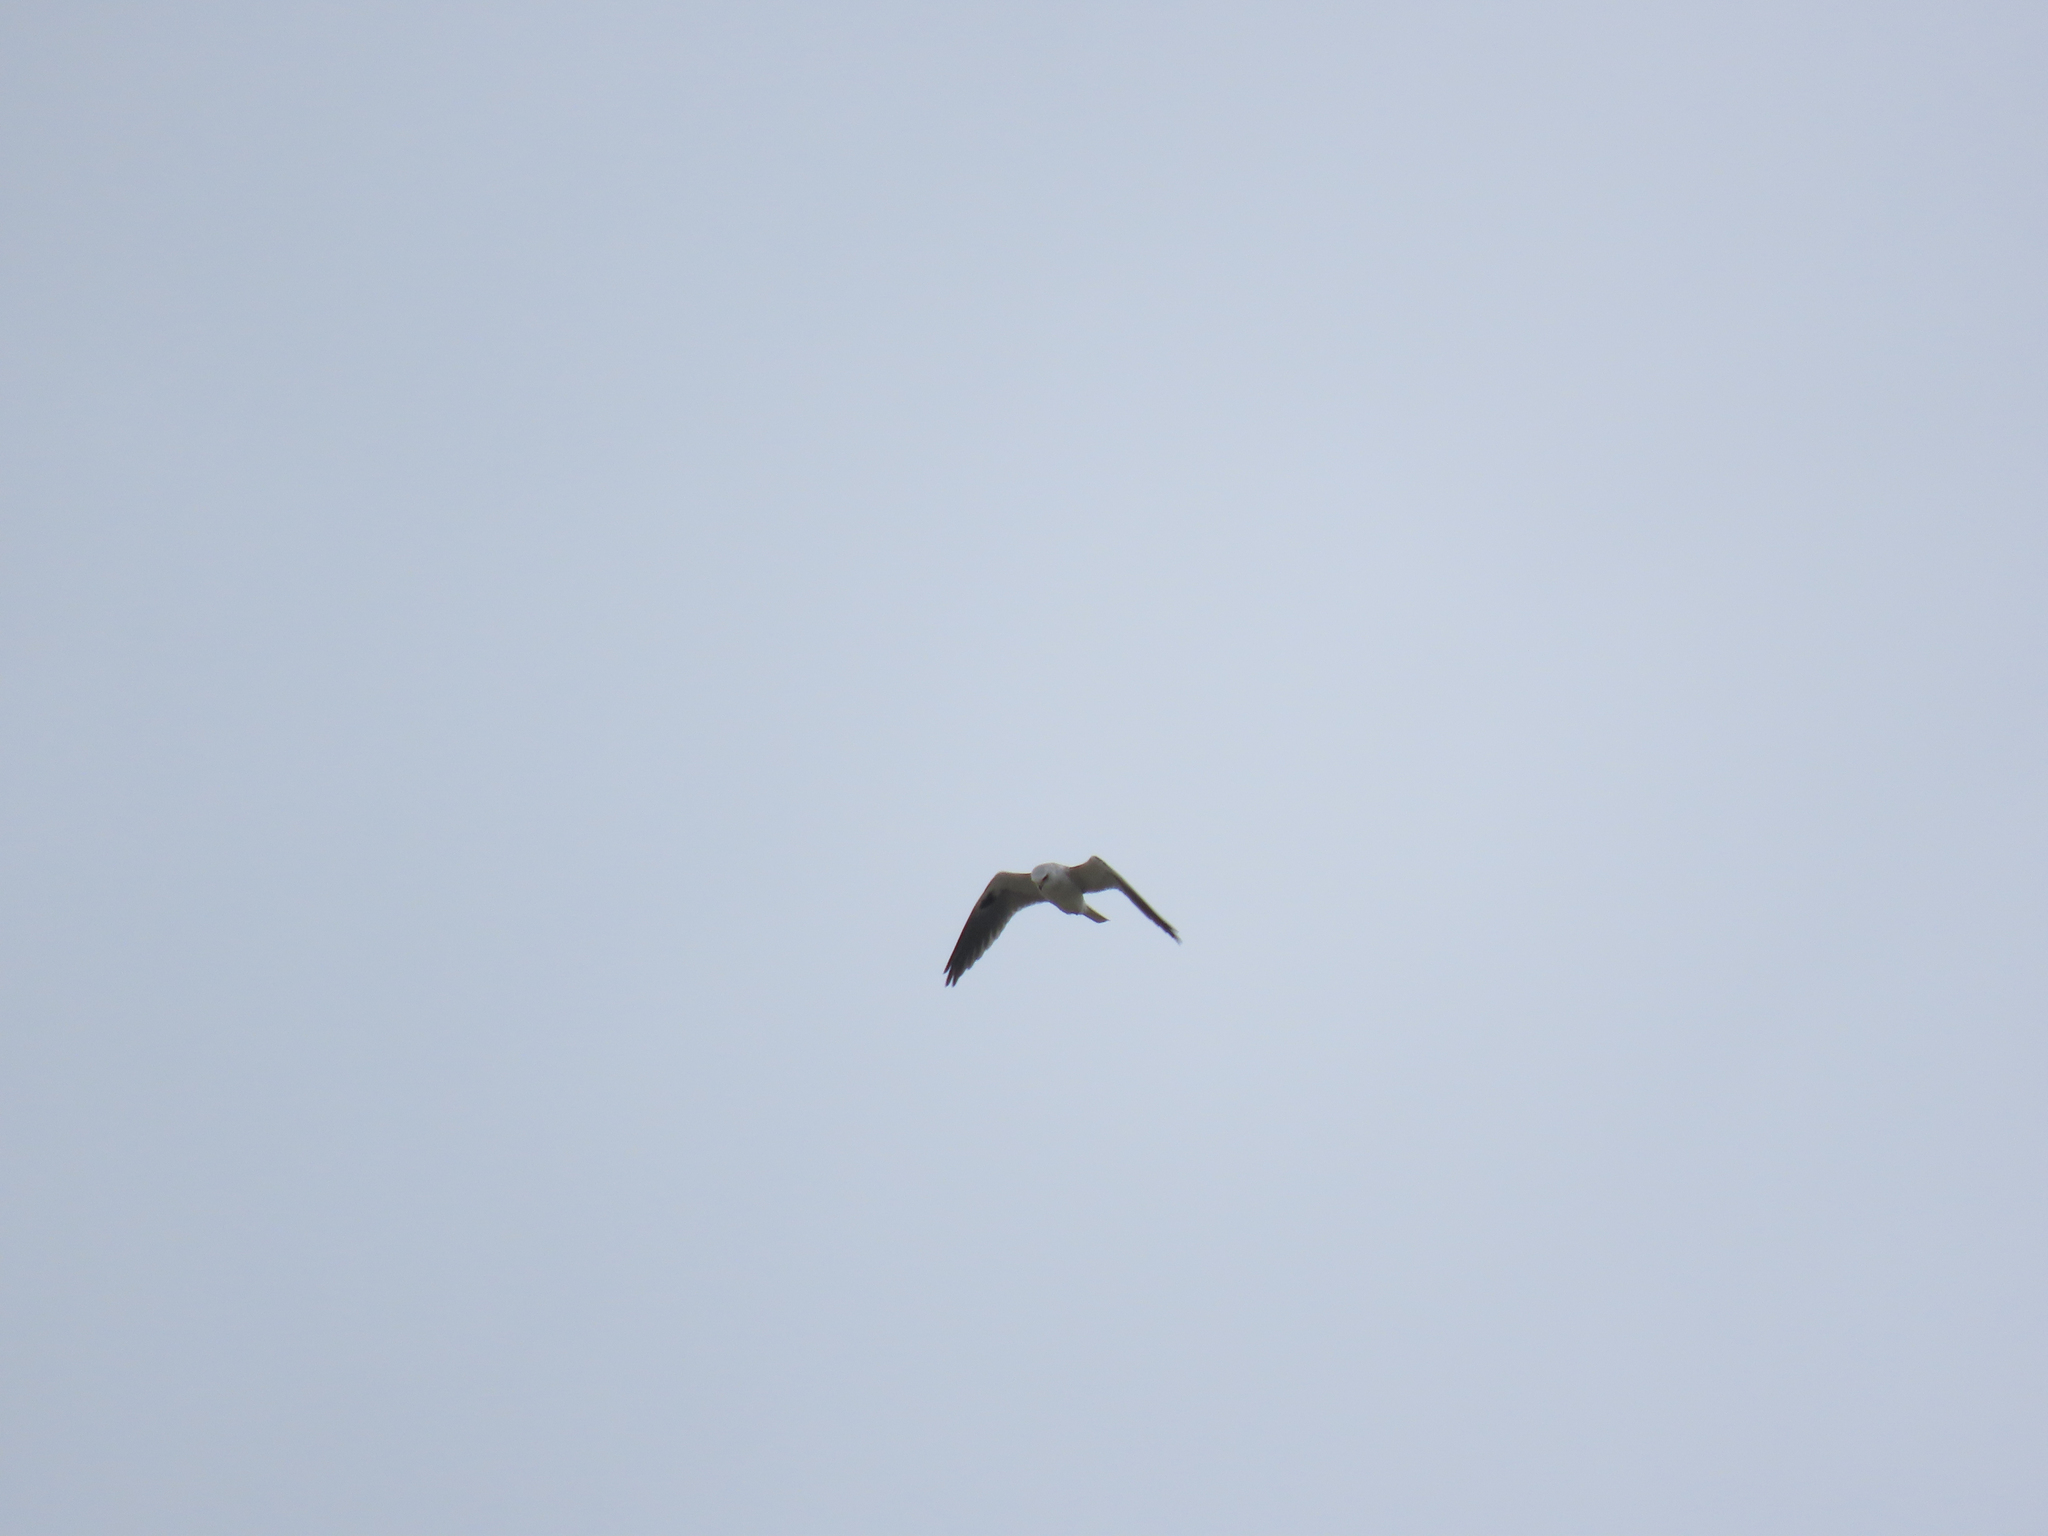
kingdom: Animalia
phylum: Chordata
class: Aves
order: Accipitriformes
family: Accipitridae
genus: Elanus
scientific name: Elanus leucurus
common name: White-tailed kite
